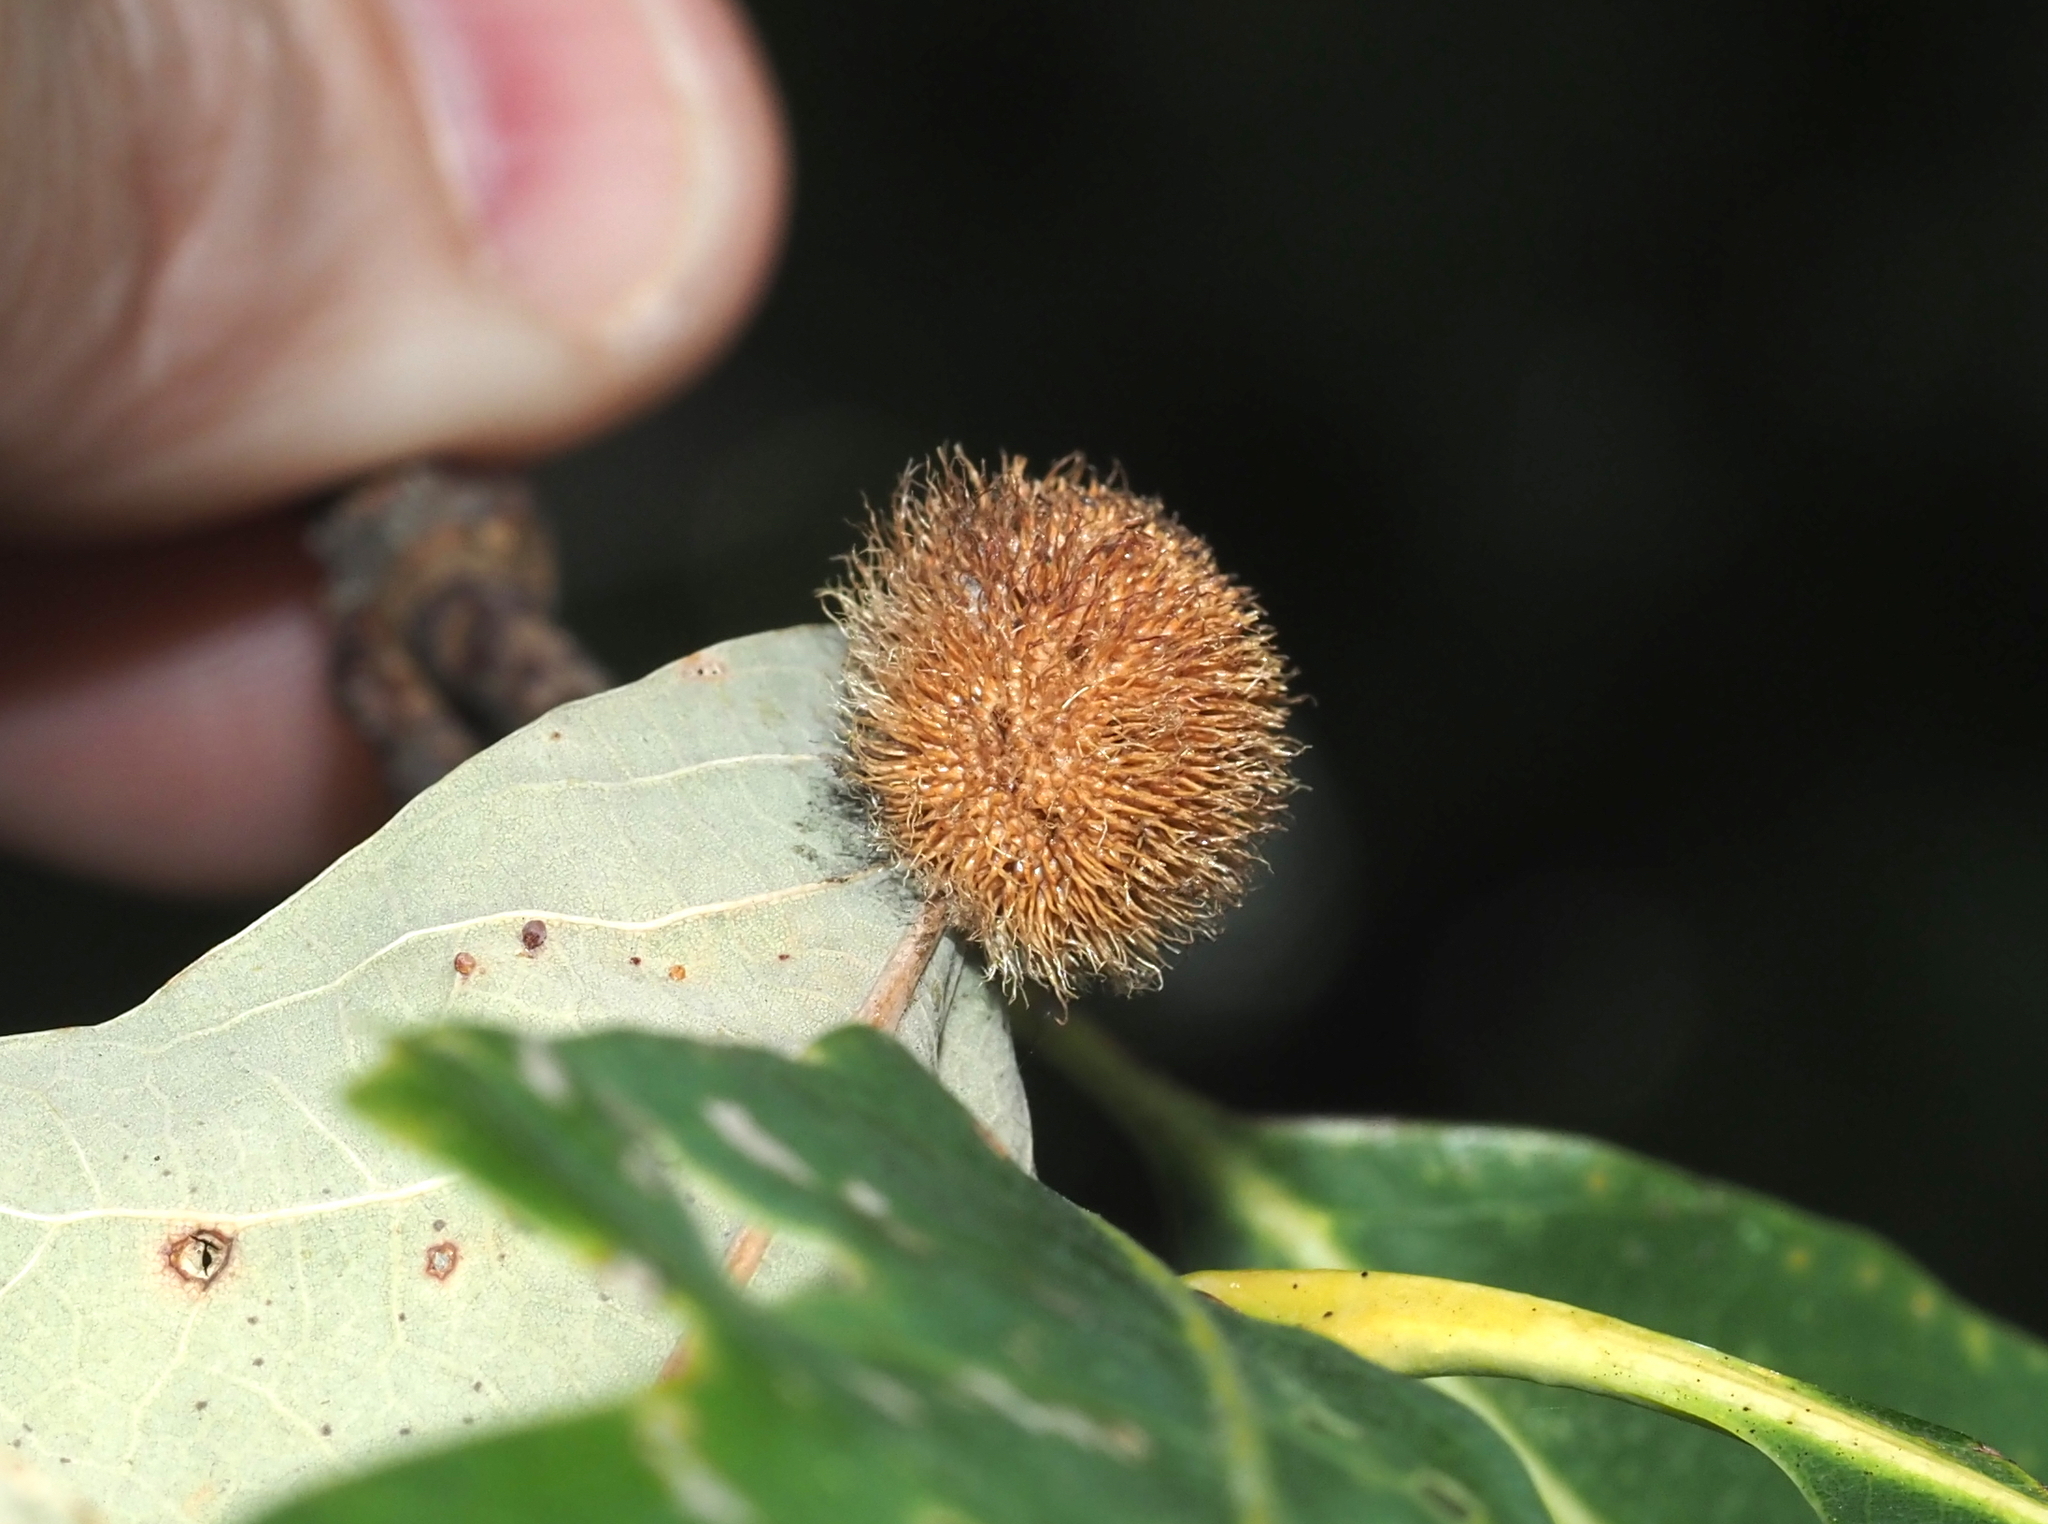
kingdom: Animalia
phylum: Arthropoda
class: Insecta
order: Hymenoptera
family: Cynipidae
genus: Acraspis
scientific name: Acraspis erinacei
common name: Hedgehog gall wasp
